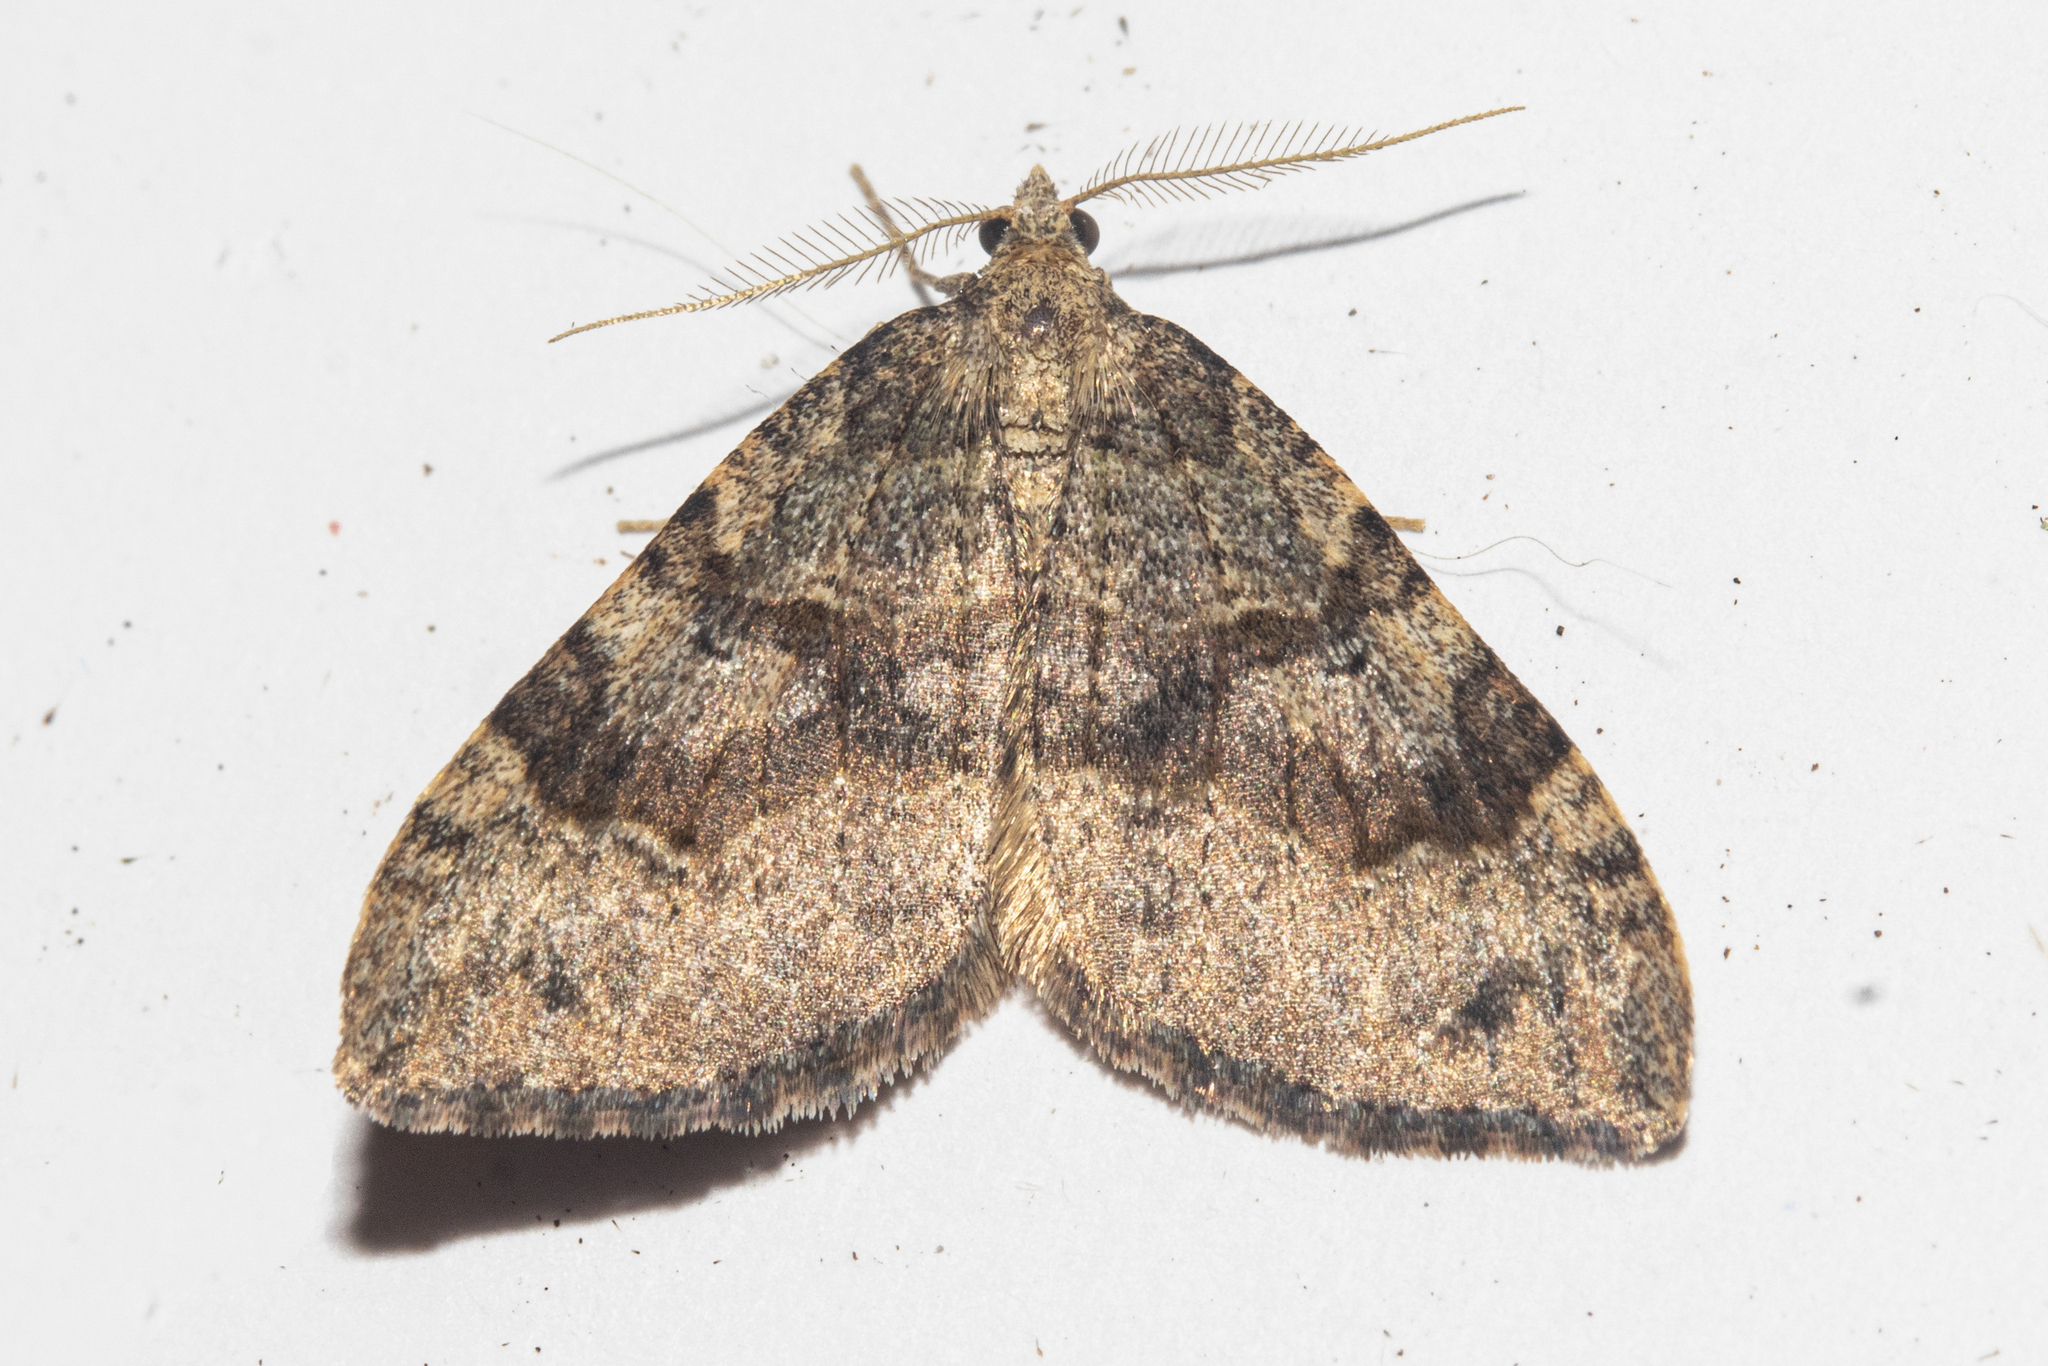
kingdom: Animalia
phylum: Arthropoda
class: Insecta
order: Lepidoptera
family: Geometridae
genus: Epyaxa
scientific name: Epyaxa rosearia
